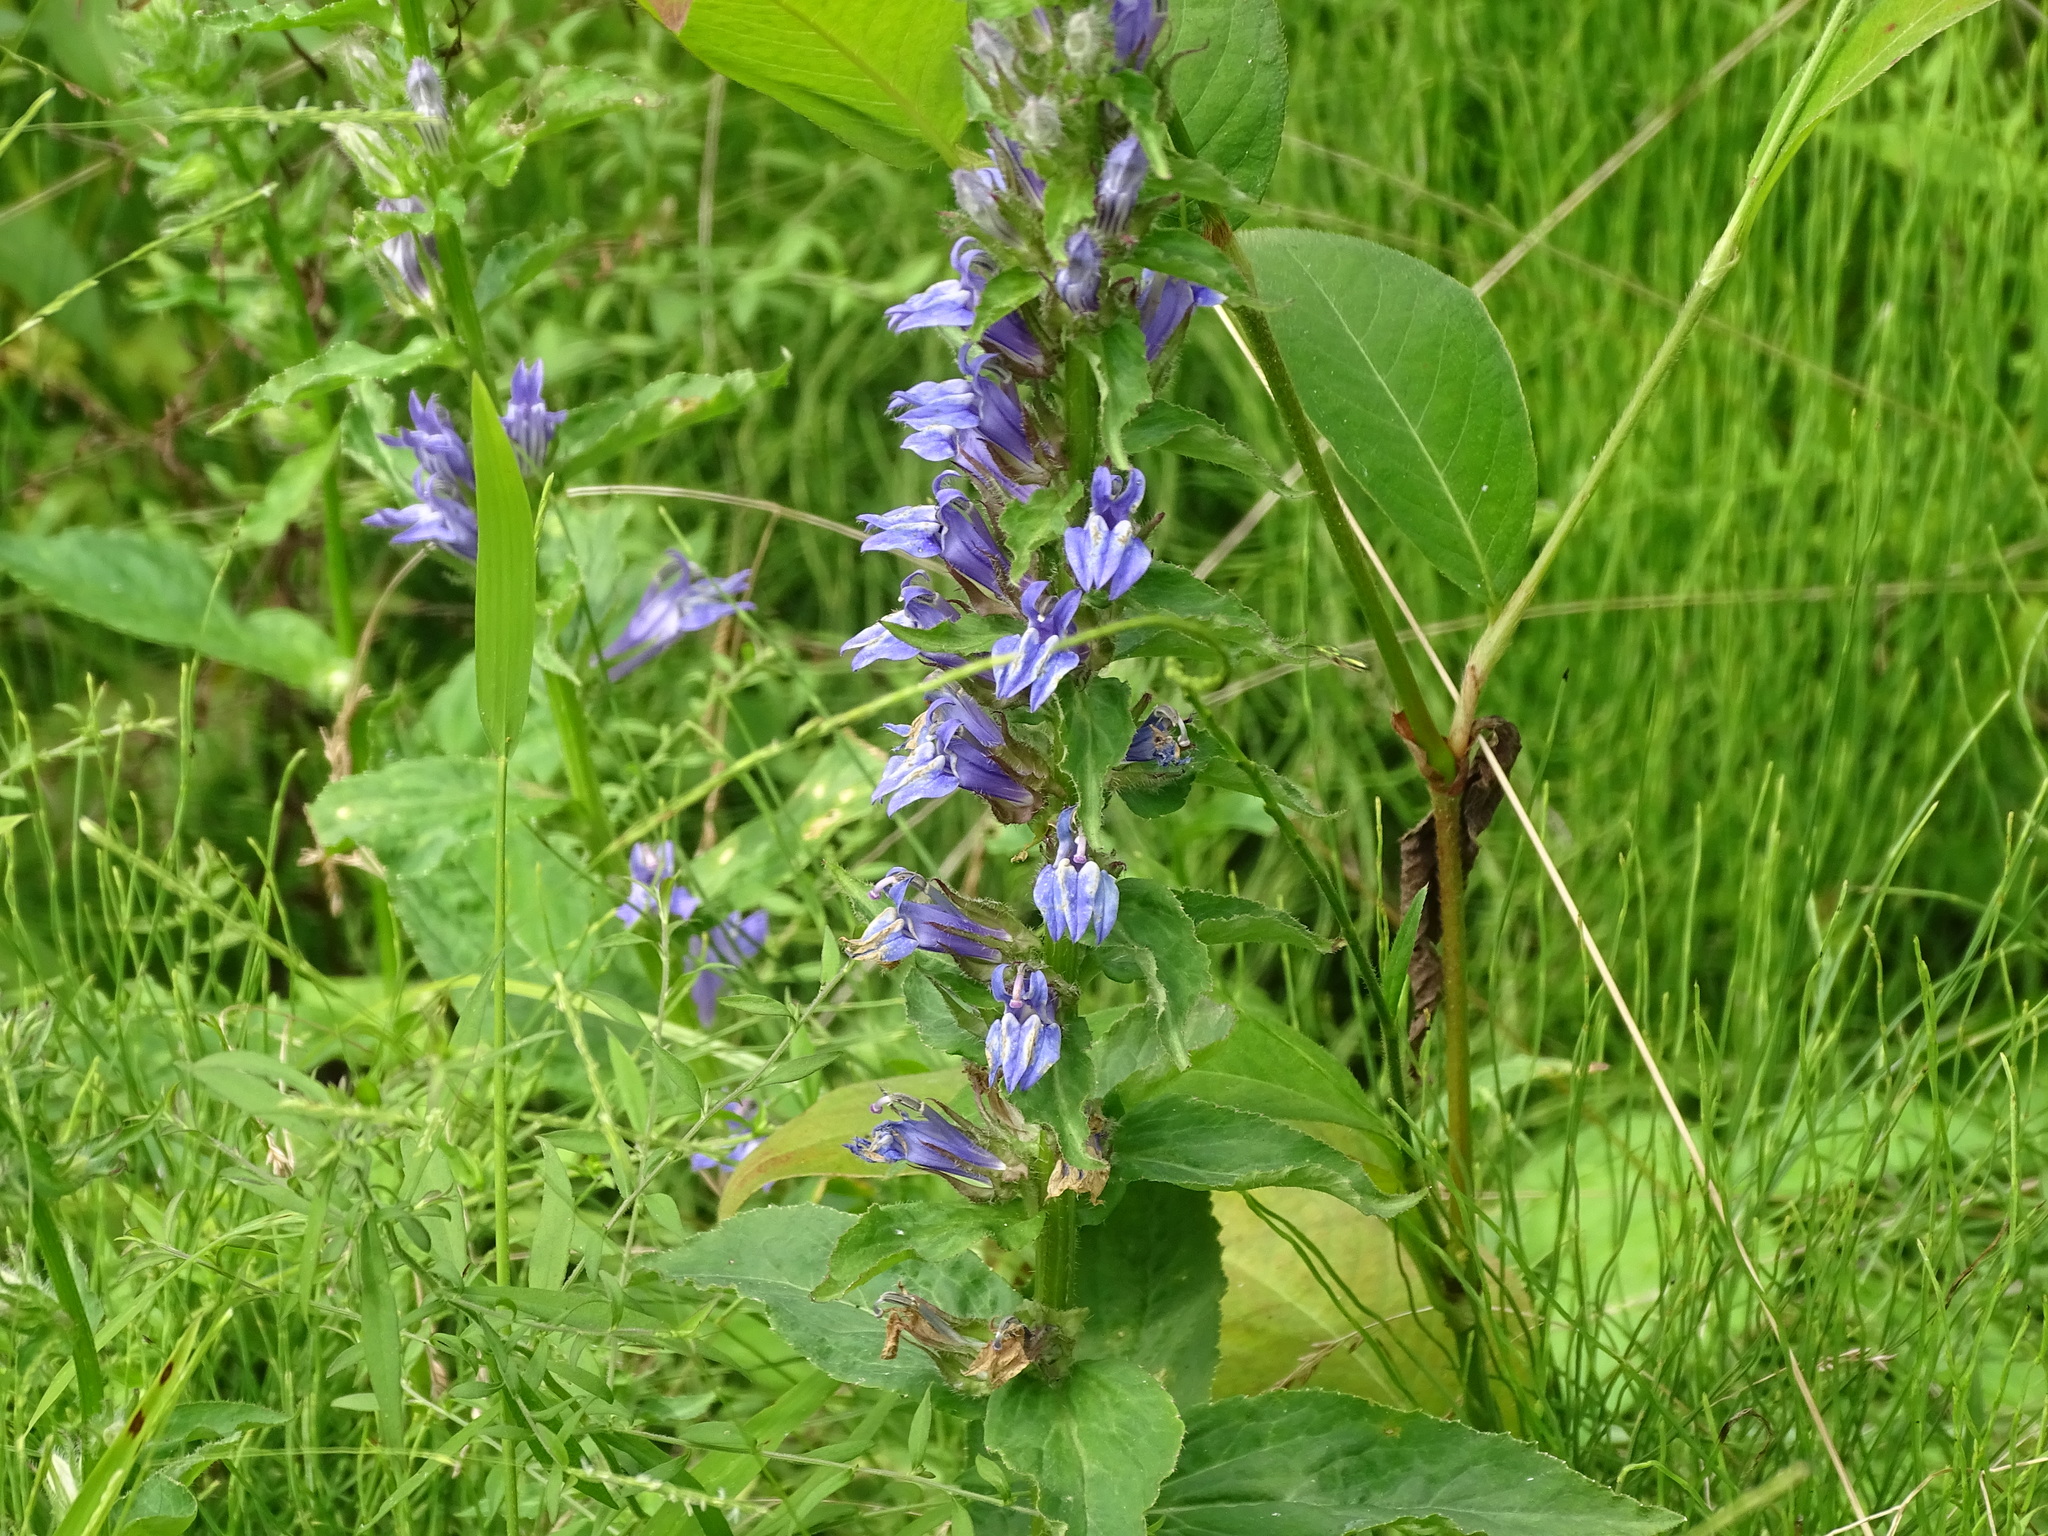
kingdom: Plantae
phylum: Tracheophyta
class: Magnoliopsida
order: Asterales
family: Campanulaceae
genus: Lobelia
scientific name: Lobelia siphilitica
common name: Great lobelia
